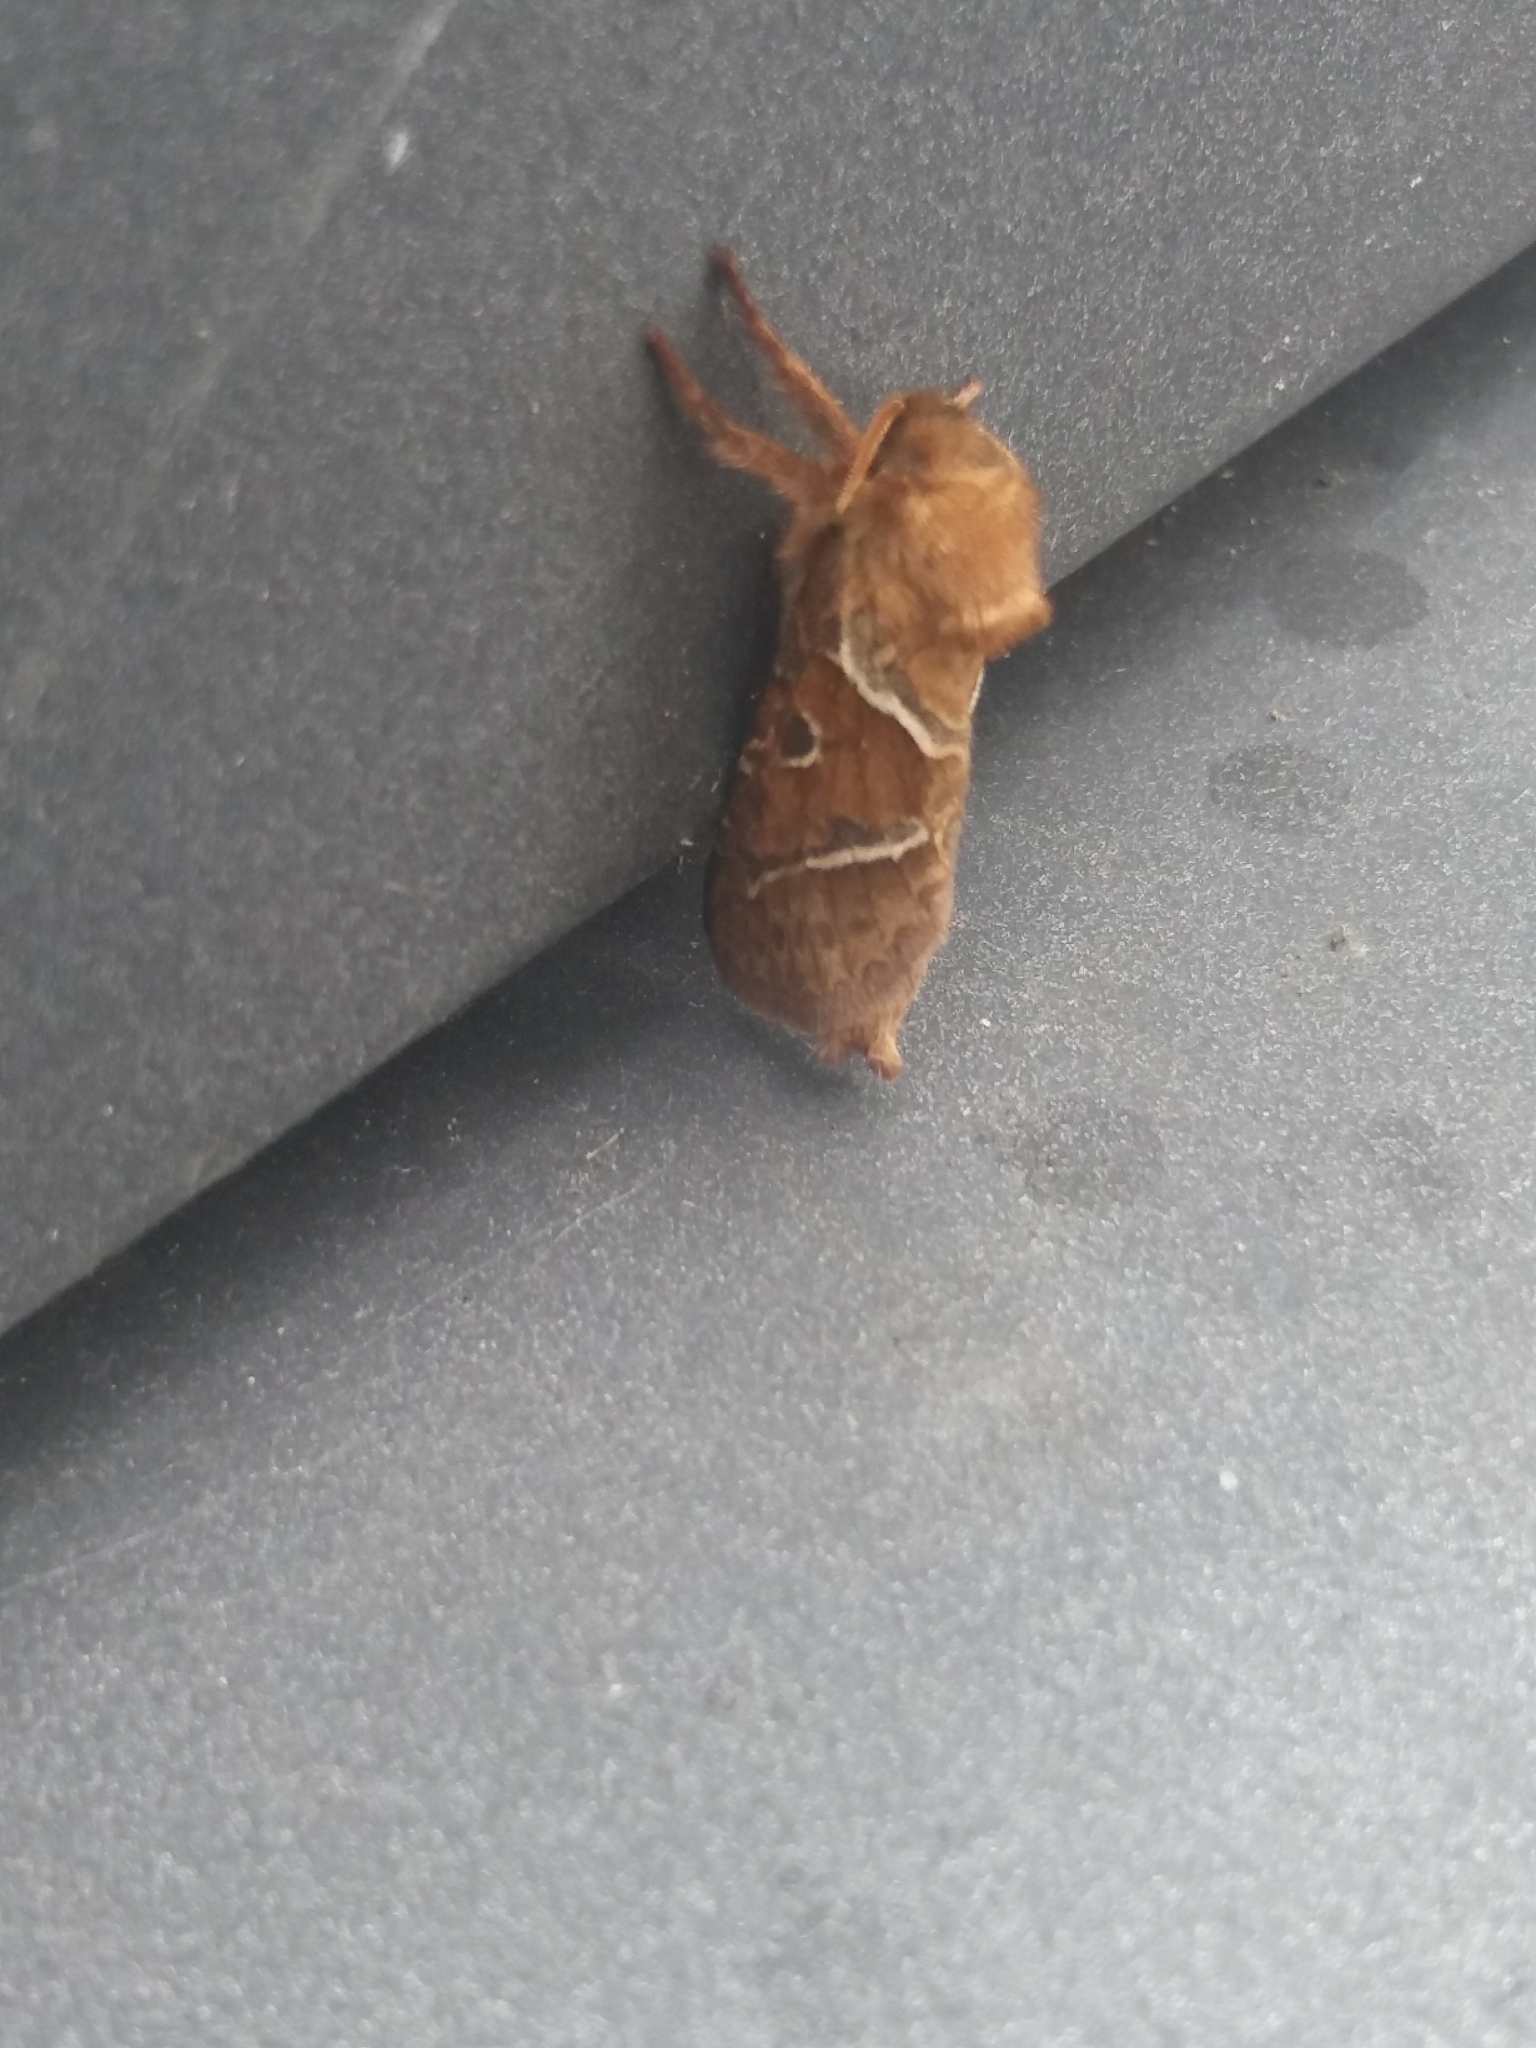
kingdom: Animalia
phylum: Arthropoda
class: Insecta
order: Lepidoptera
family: Hepialidae
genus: Triodia
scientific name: Triodia sylvina
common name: Orange swift
